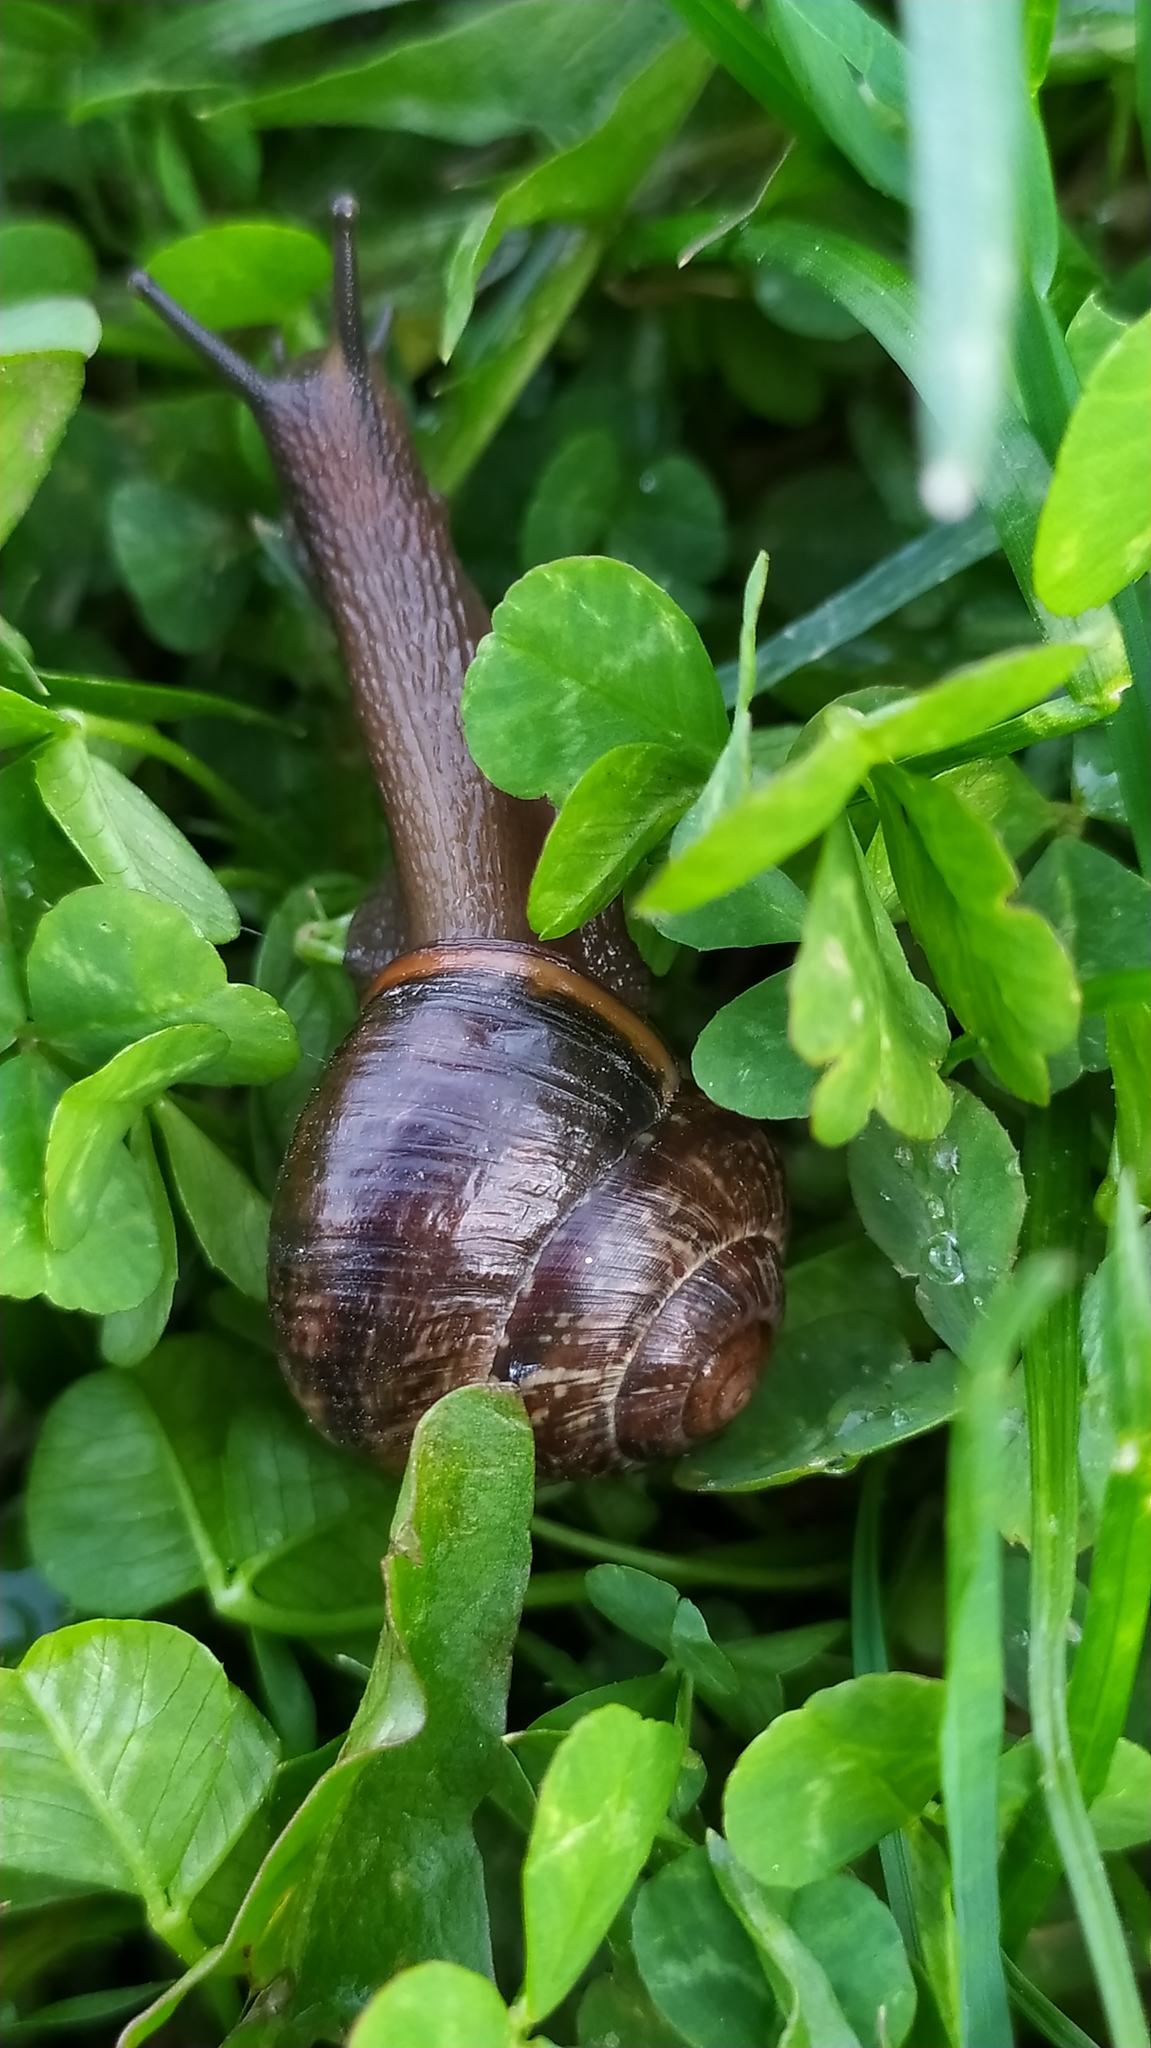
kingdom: Animalia
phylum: Mollusca
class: Gastropoda
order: Stylommatophora
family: Helicidae
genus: Arianta
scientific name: Arianta arbustorum
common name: Copse snail
